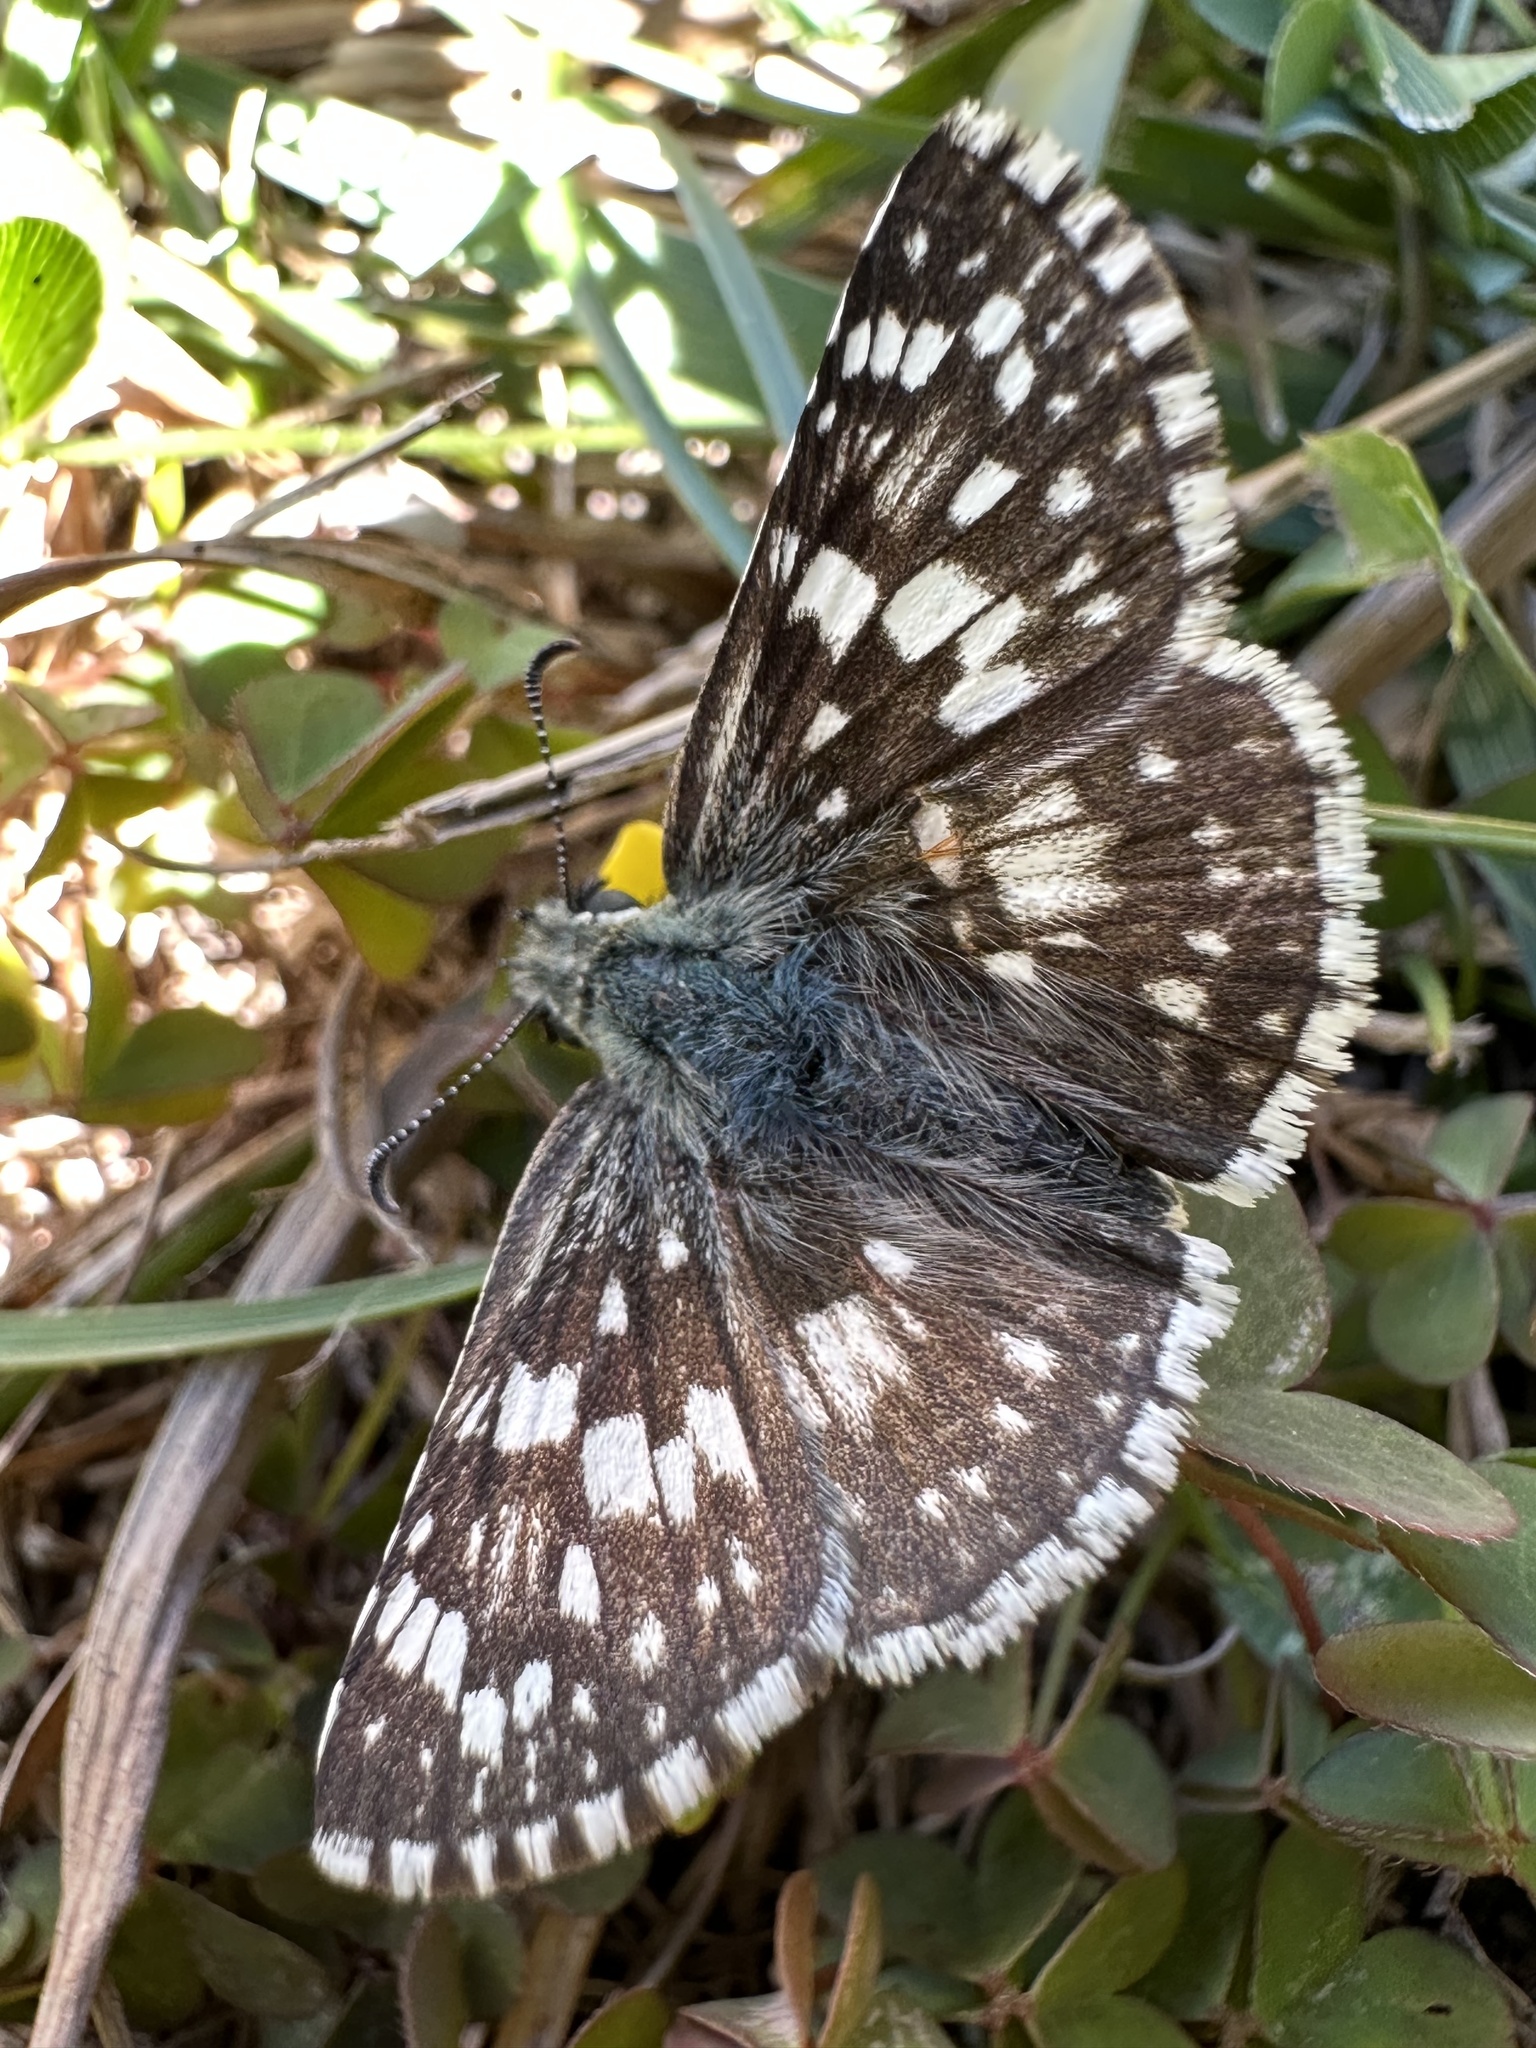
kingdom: Animalia
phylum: Arthropoda
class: Insecta
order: Lepidoptera
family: Hesperiidae
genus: Burnsius
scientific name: Burnsius communis
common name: Common checkered-skipper
